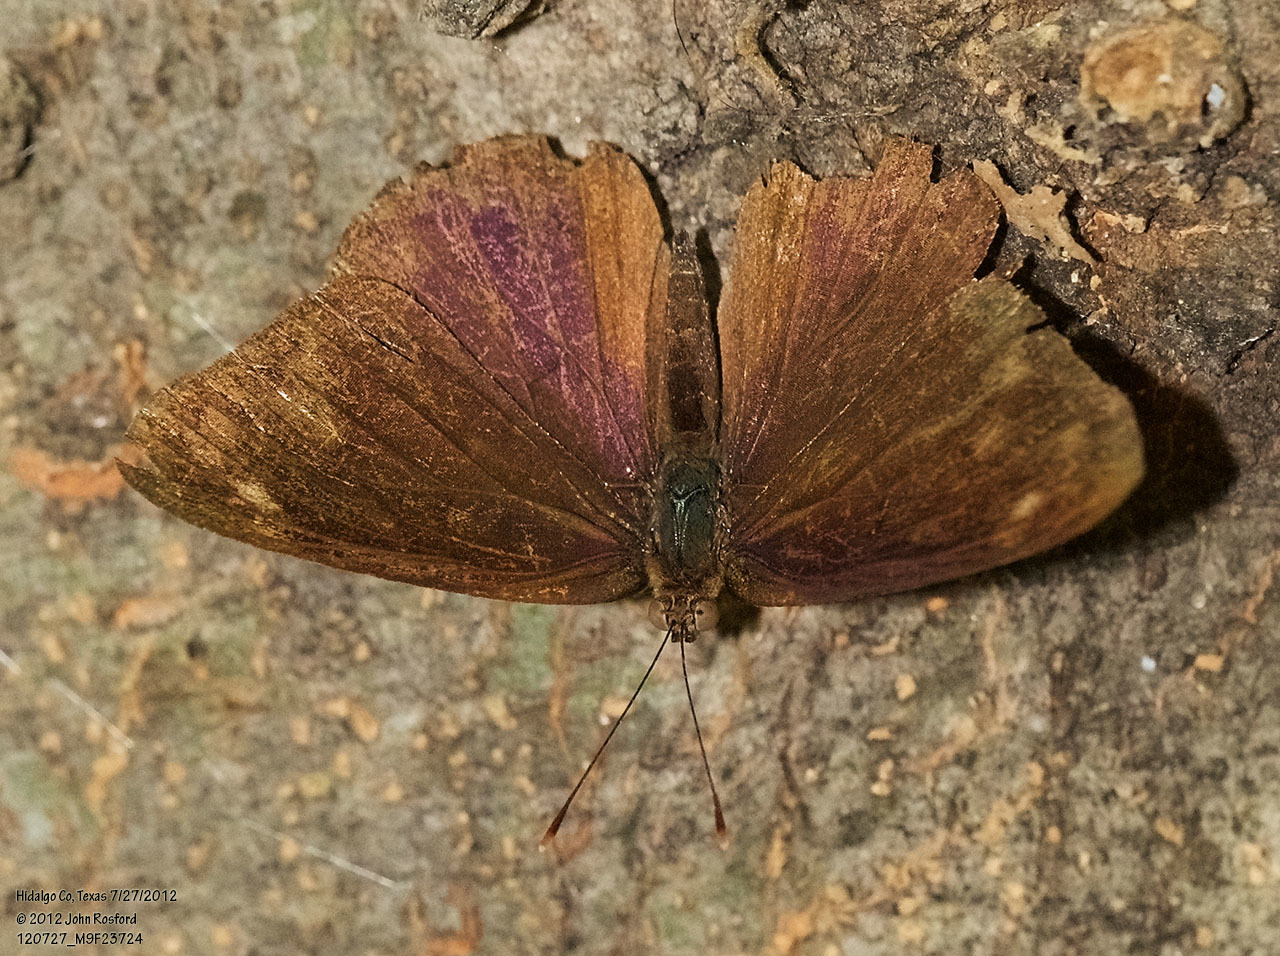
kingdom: Animalia
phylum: Arthropoda
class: Insecta
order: Lepidoptera
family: Nymphalidae
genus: Eunica
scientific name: Eunica monima
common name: Dingy purplewing
